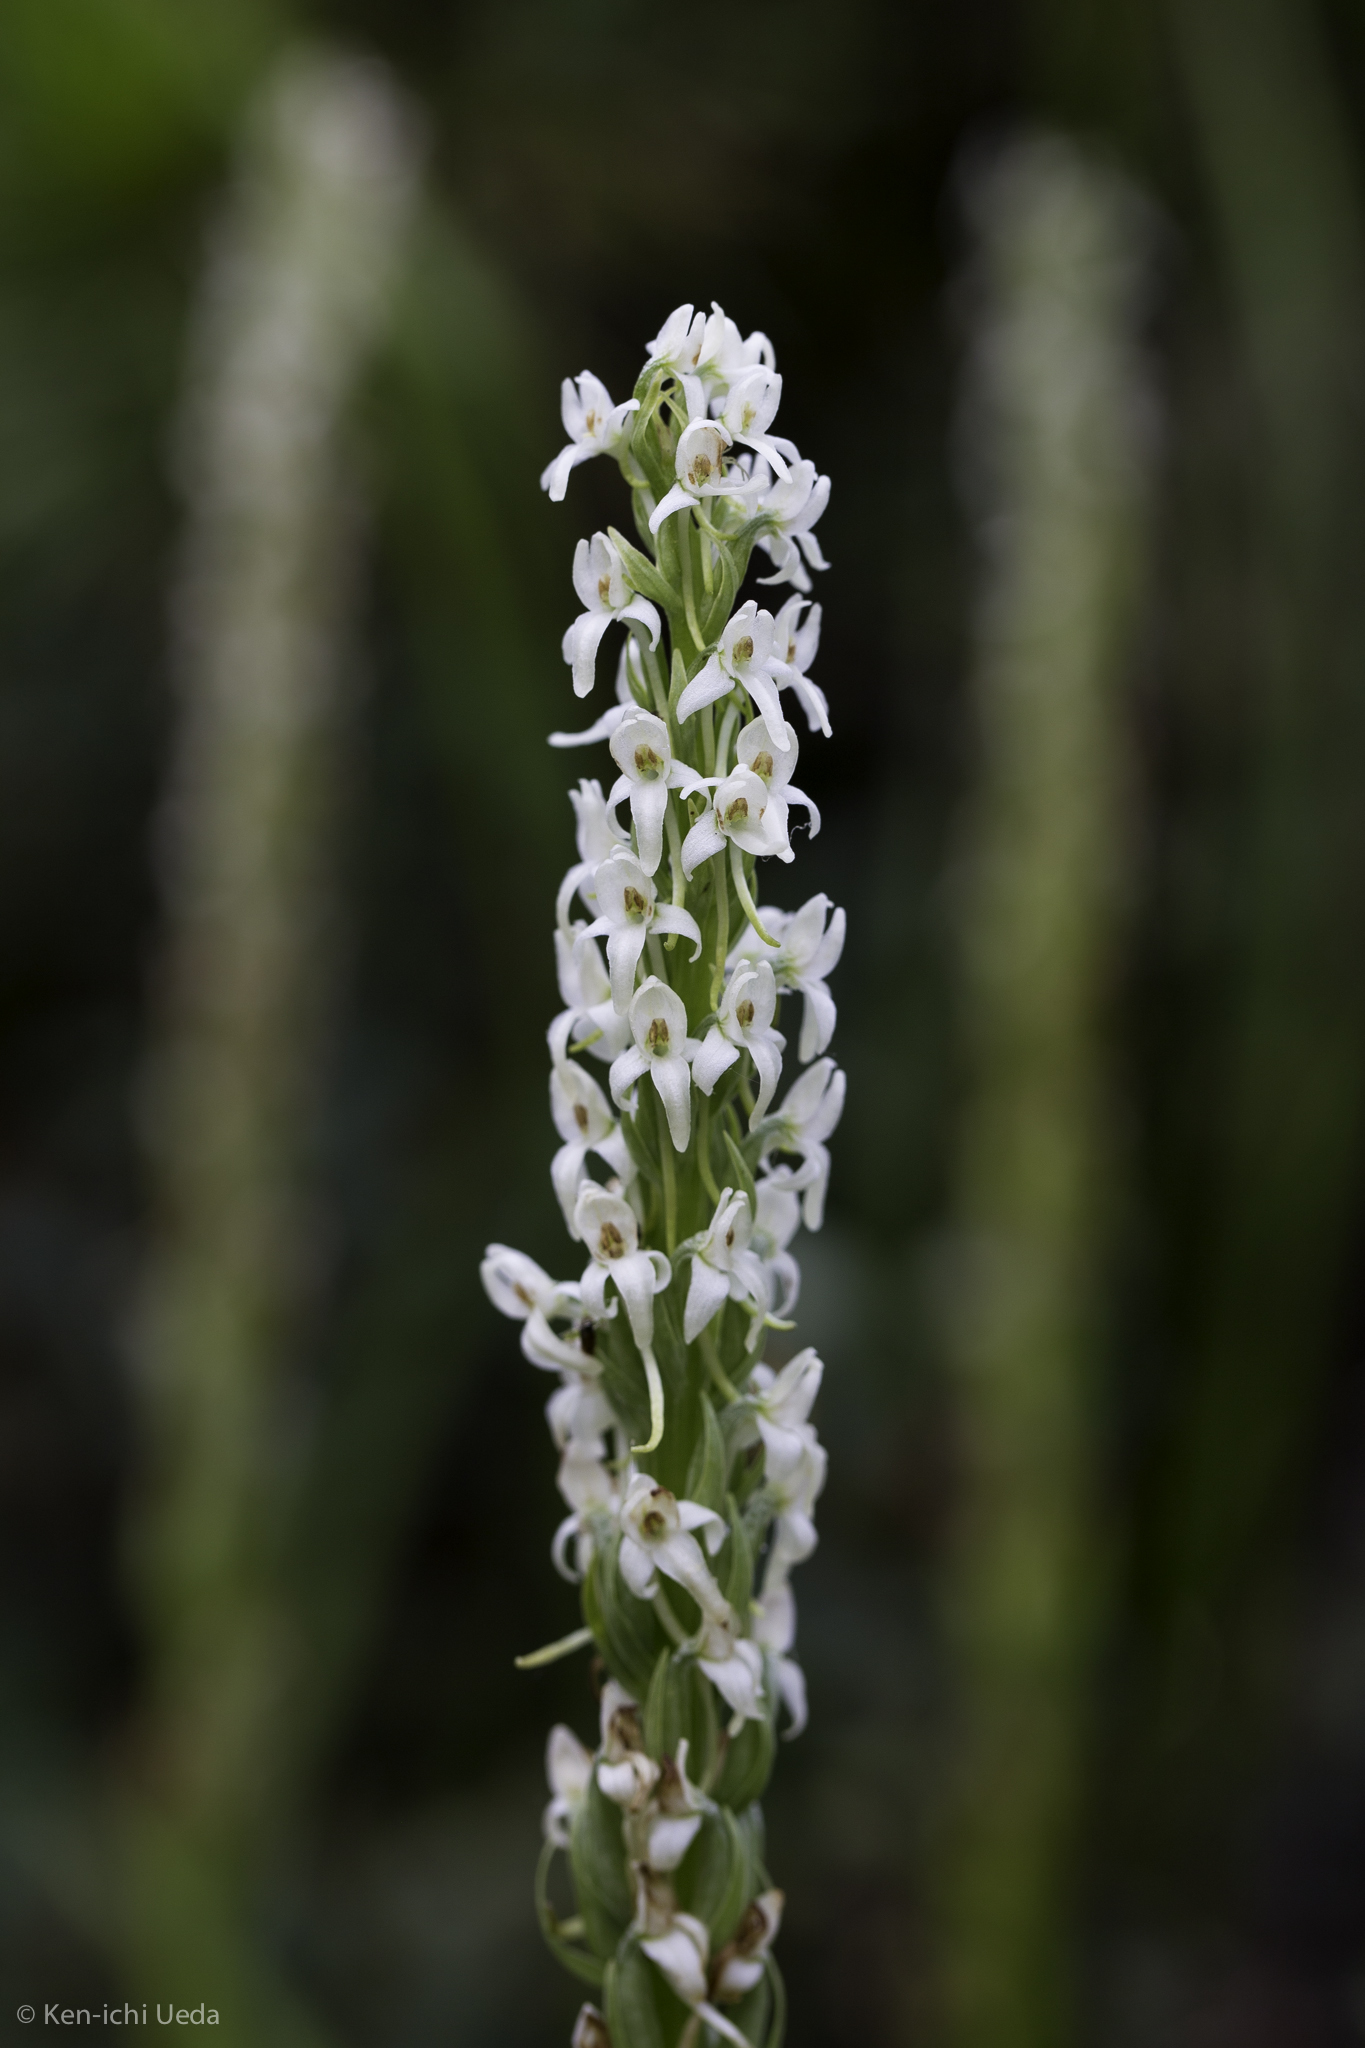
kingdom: Plantae
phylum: Tracheophyta
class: Liliopsida
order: Asparagales
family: Orchidaceae
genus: Platanthera
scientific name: Platanthera dilatata
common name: Bog candles
